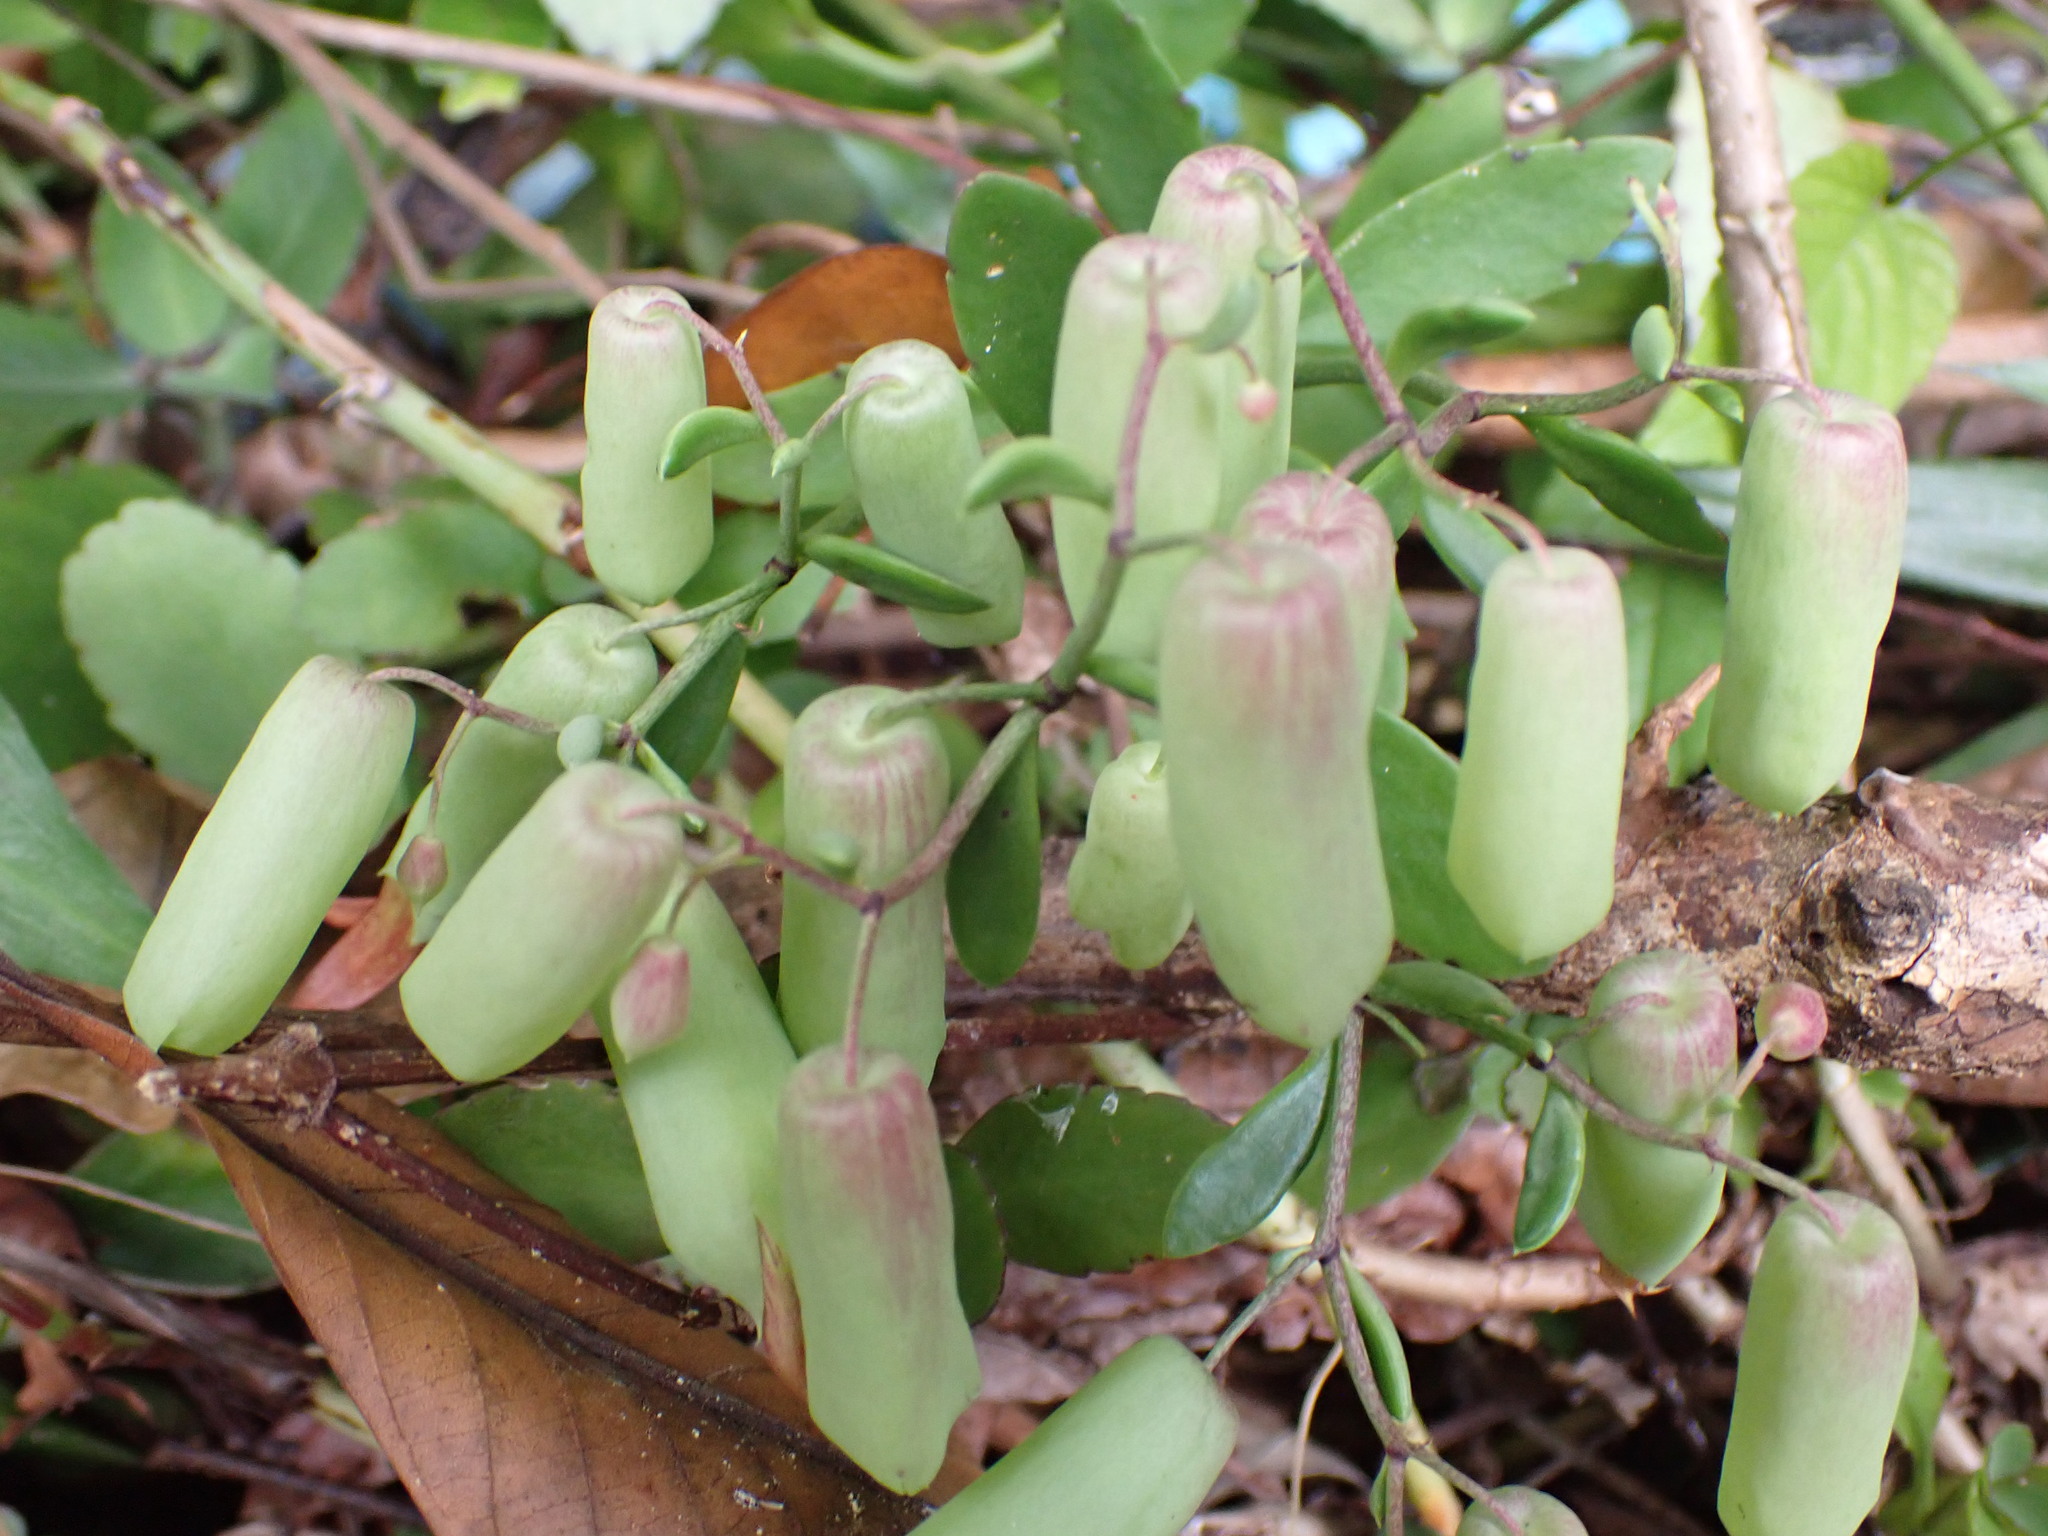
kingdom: Plantae
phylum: Tracheophyta
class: Magnoliopsida
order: Saxifragales
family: Crassulaceae
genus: Kalanchoe
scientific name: Kalanchoe pinnata
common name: Cathedral bells
